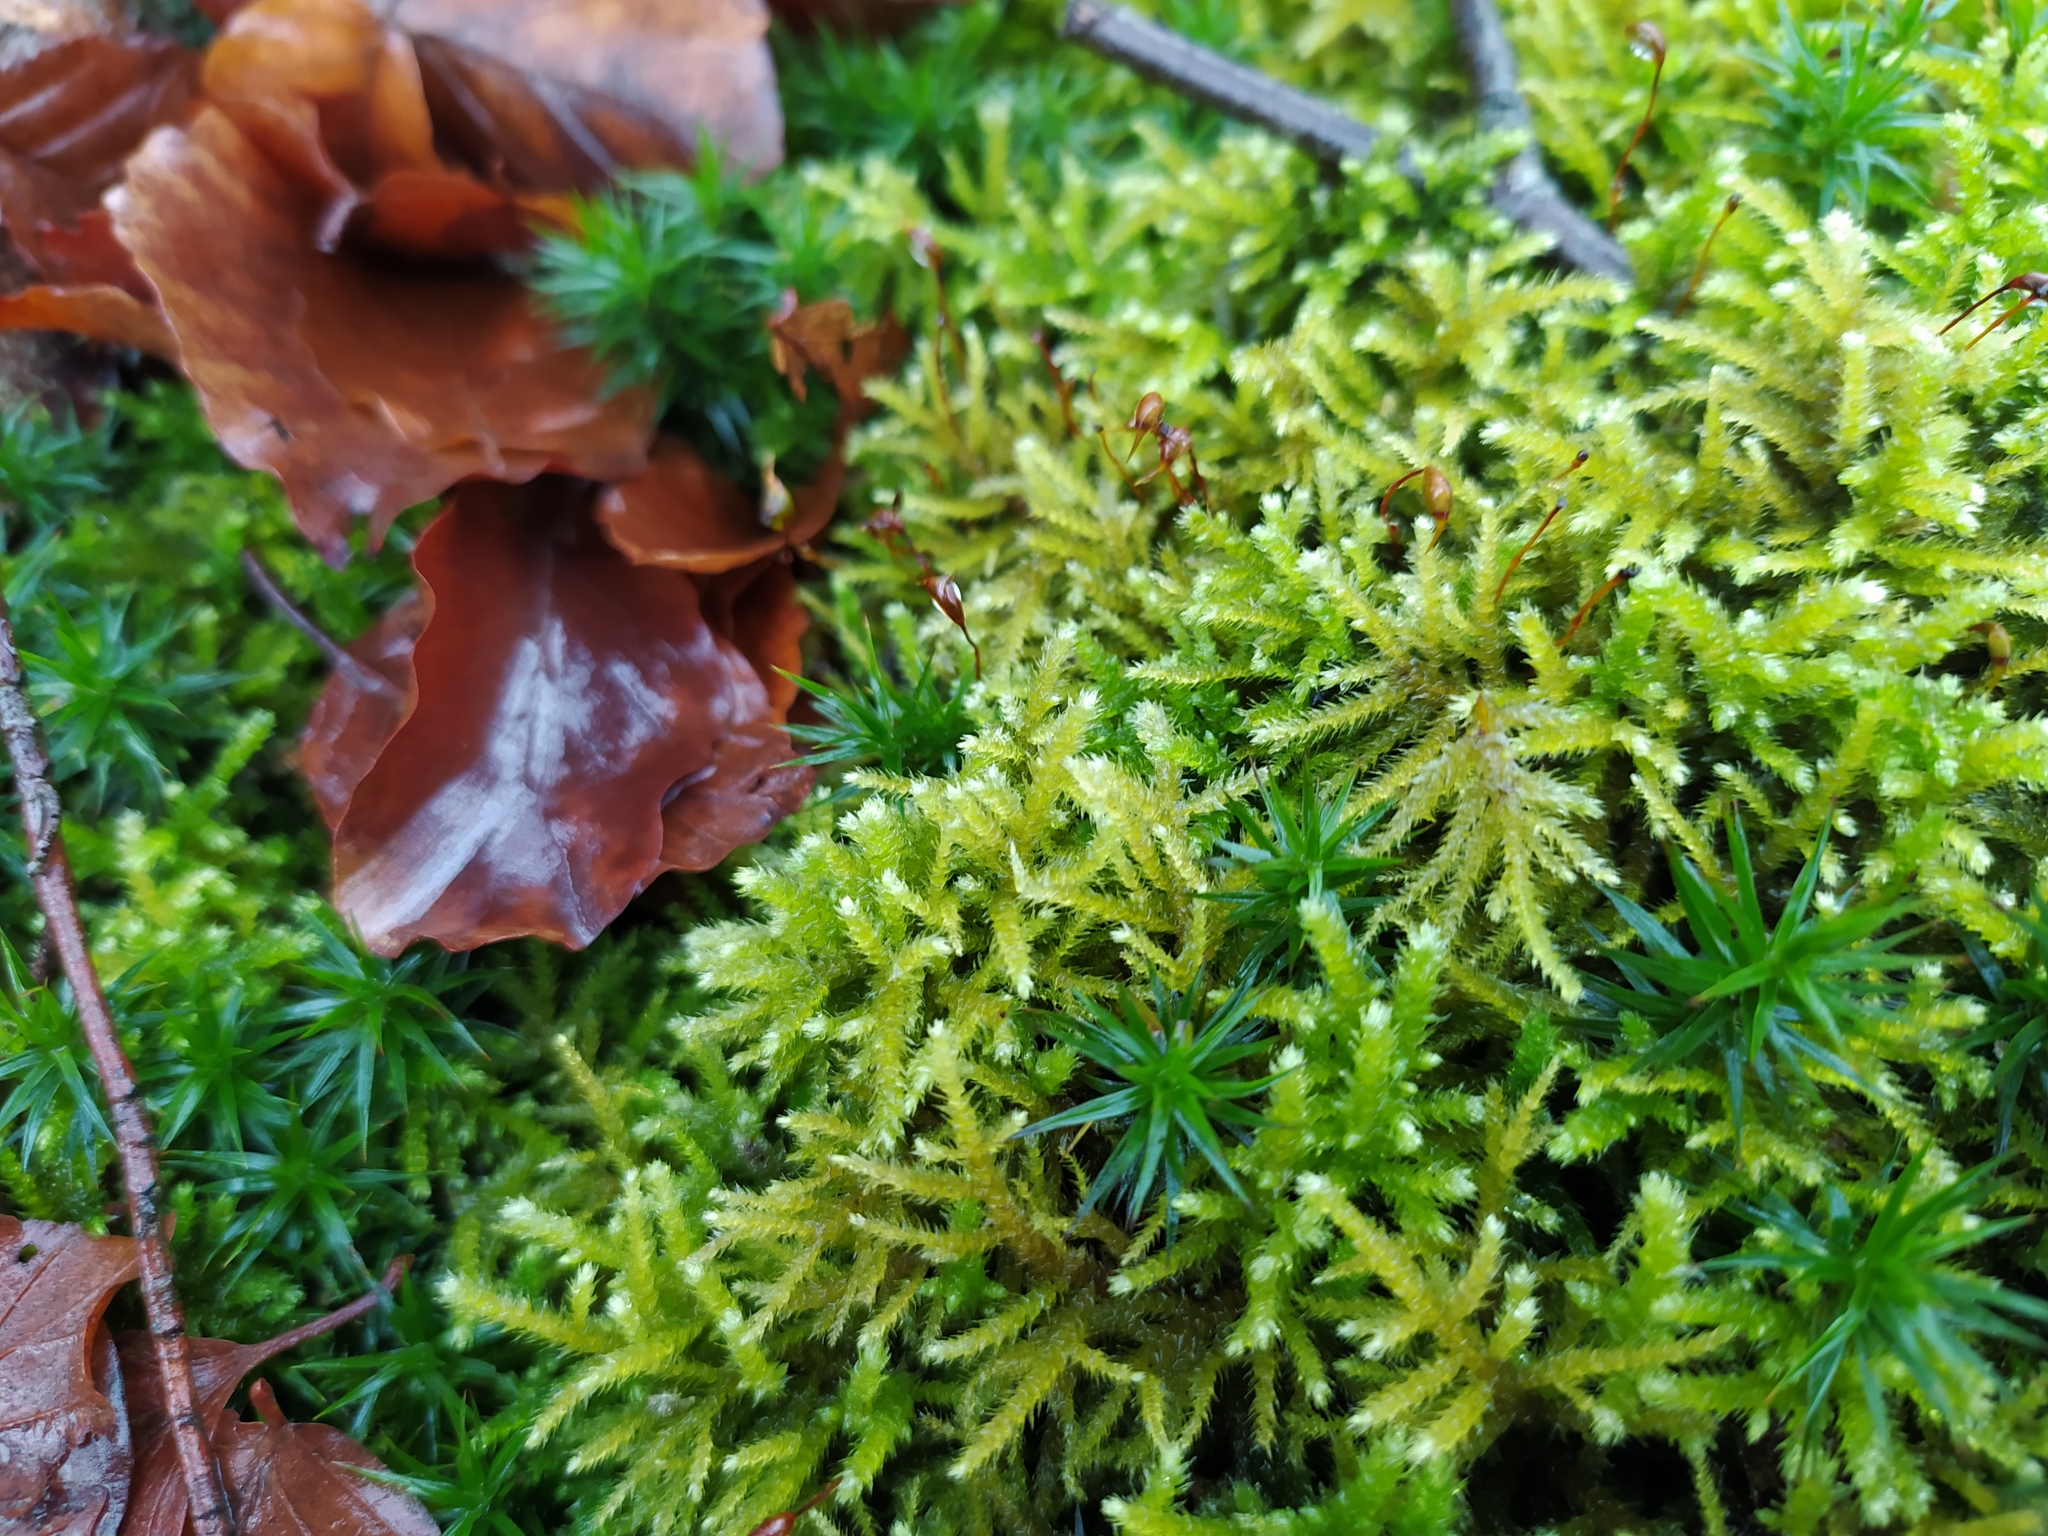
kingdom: Plantae
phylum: Bryophyta
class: Bryopsida
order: Hypnales
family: Brachytheciaceae
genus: Eurhynchium
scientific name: Eurhynchium striatum
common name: Common striated feather-moss
